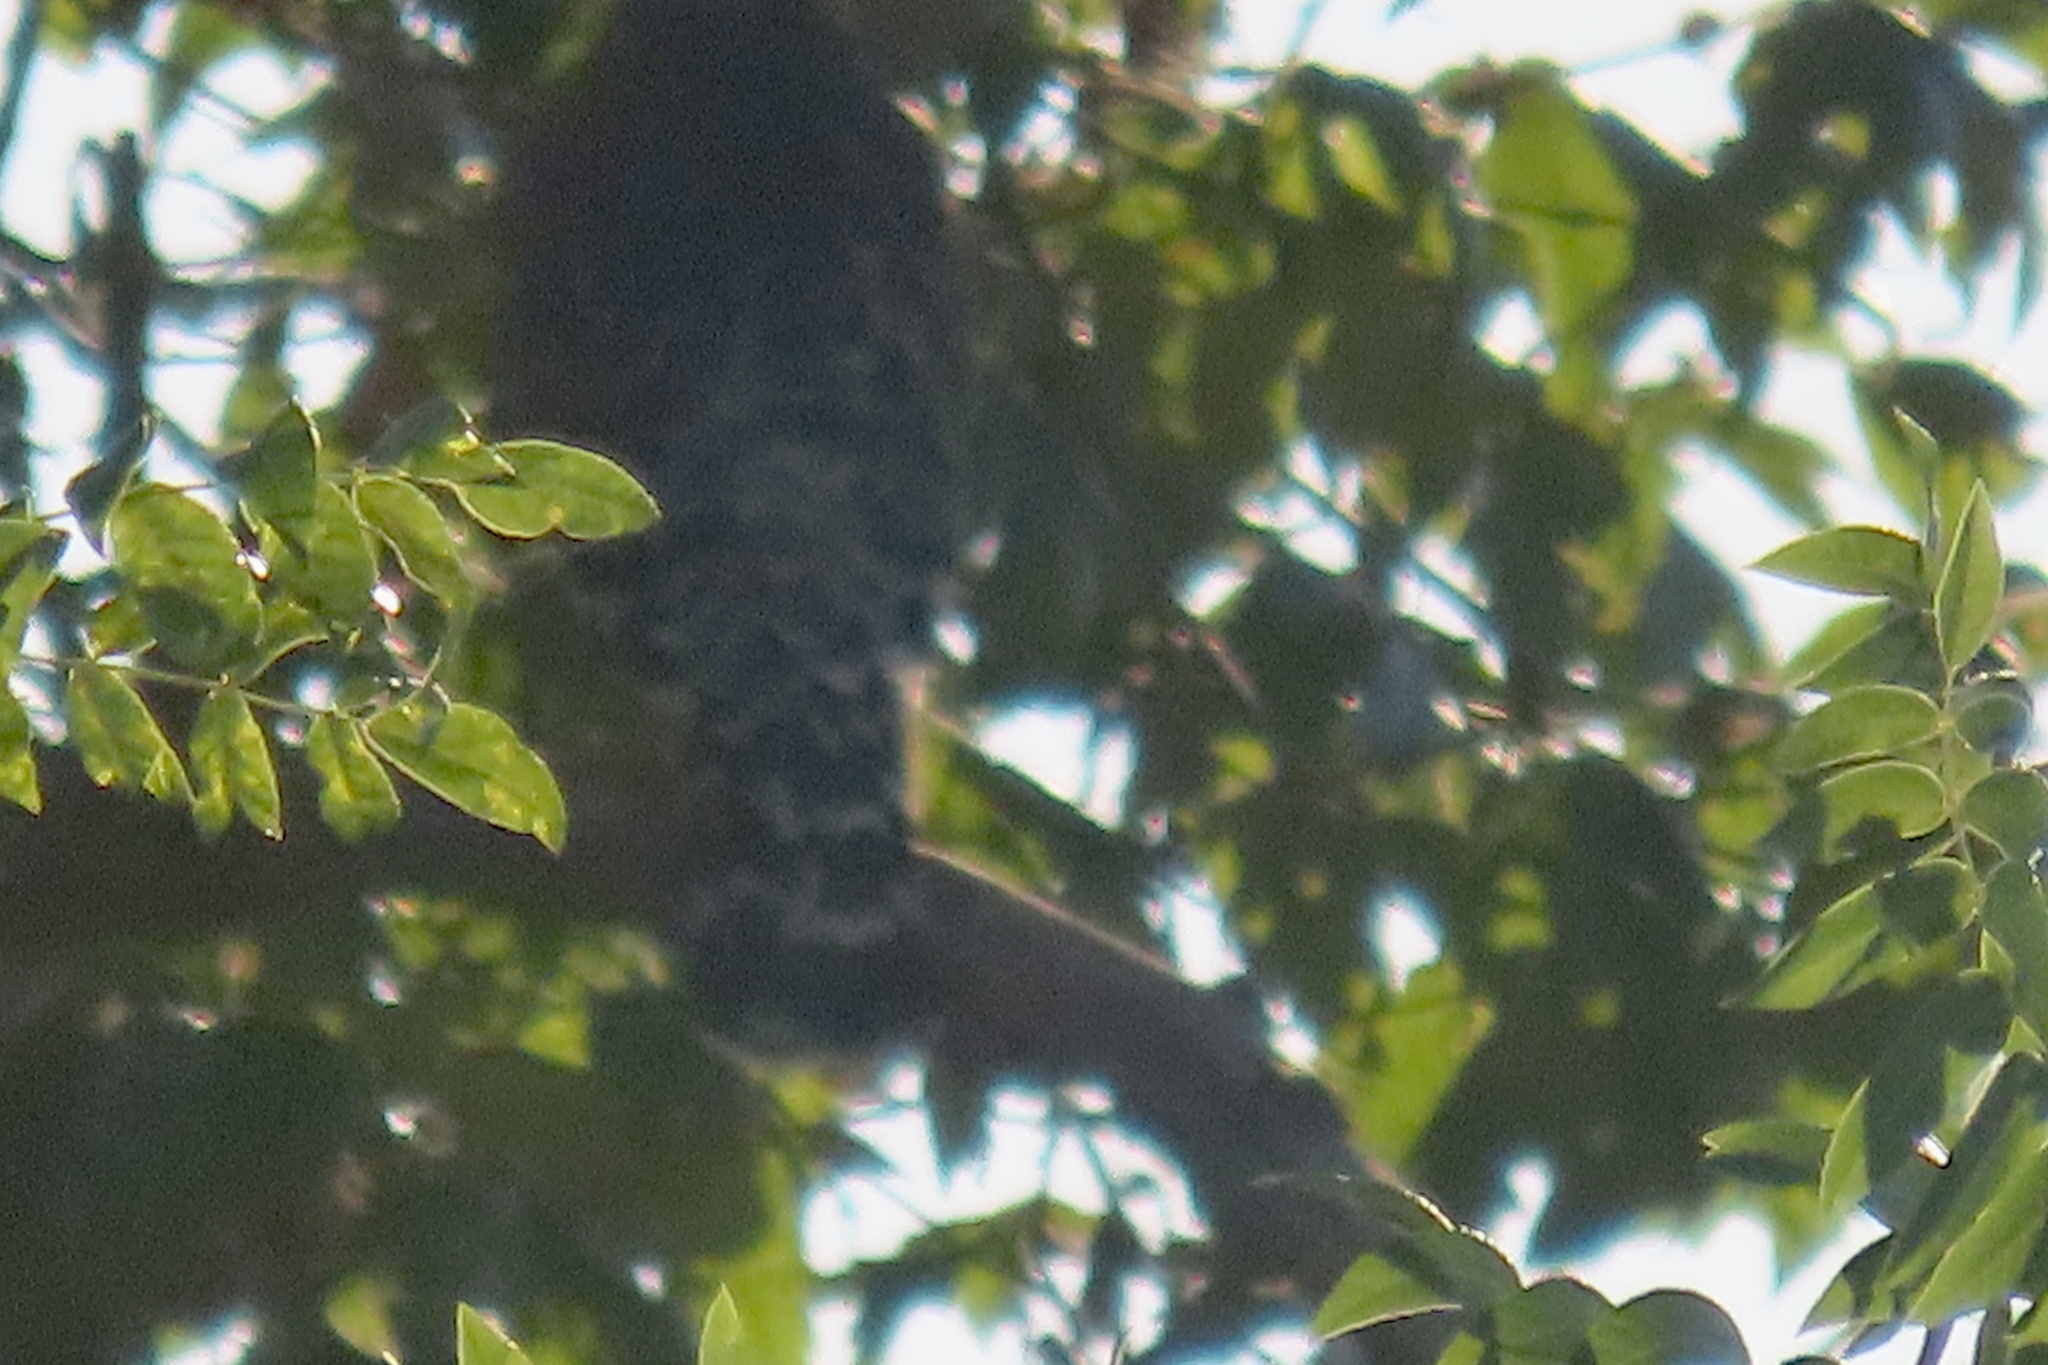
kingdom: Animalia
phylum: Chordata
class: Aves
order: Accipitriformes
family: Accipitridae
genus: Buteo
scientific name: Buteo lineatus
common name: Red-shouldered hawk
